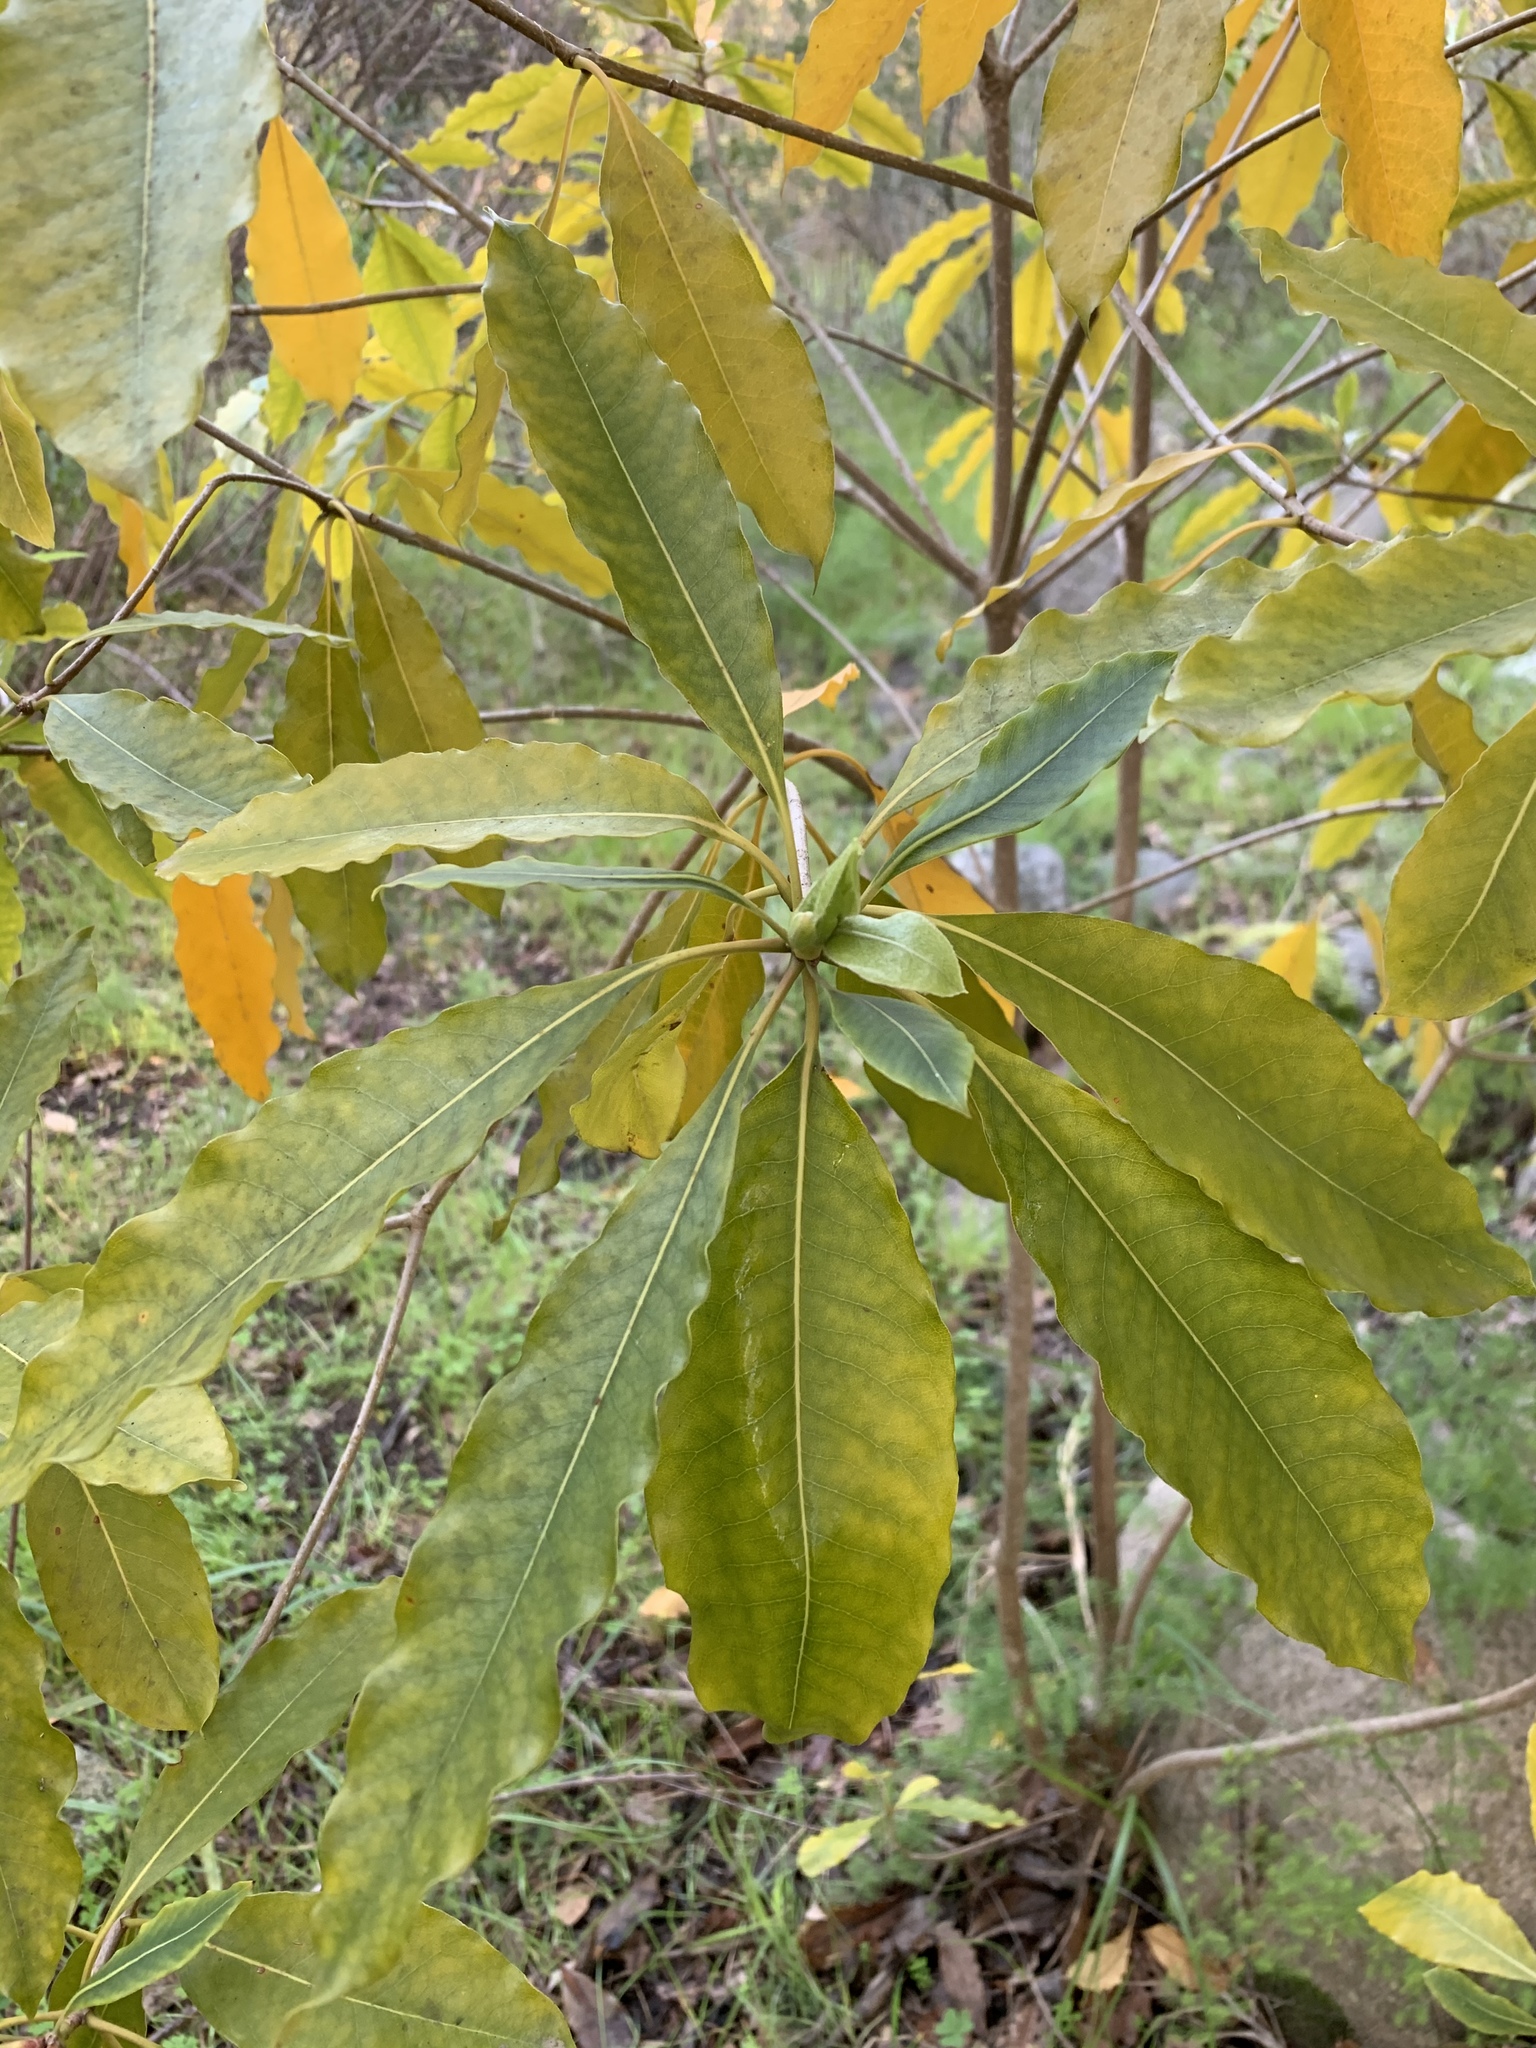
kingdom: Plantae
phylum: Tracheophyta
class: Magnoliopsida
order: Apiales
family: Pittosporaceae
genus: Pittosporum
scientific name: Pittosporum undulatum
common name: Australian cheesewood
